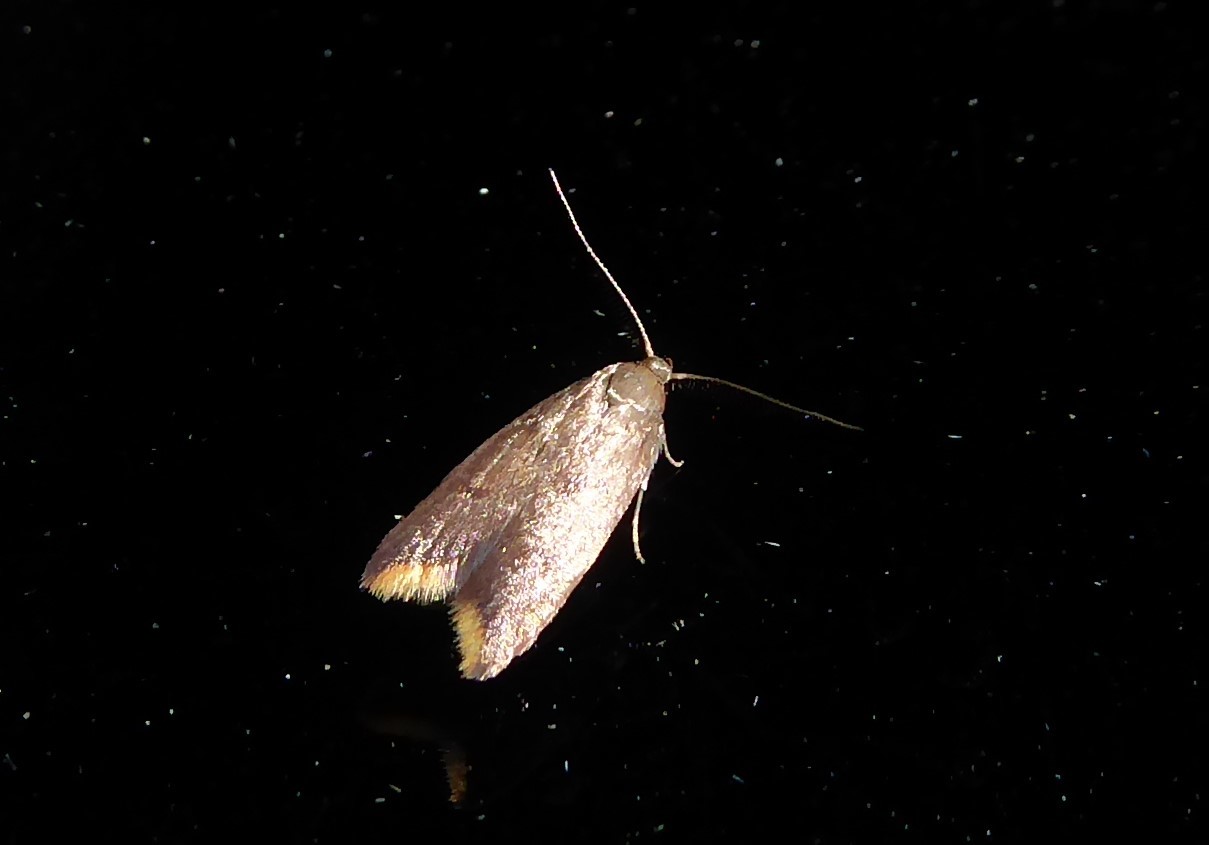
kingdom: Animalia
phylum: Arthropoda
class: Insecta
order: Lepidoptera
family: Oecophoridae
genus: Tachystola
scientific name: Tachystola acroxantha
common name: Ruddy streak
